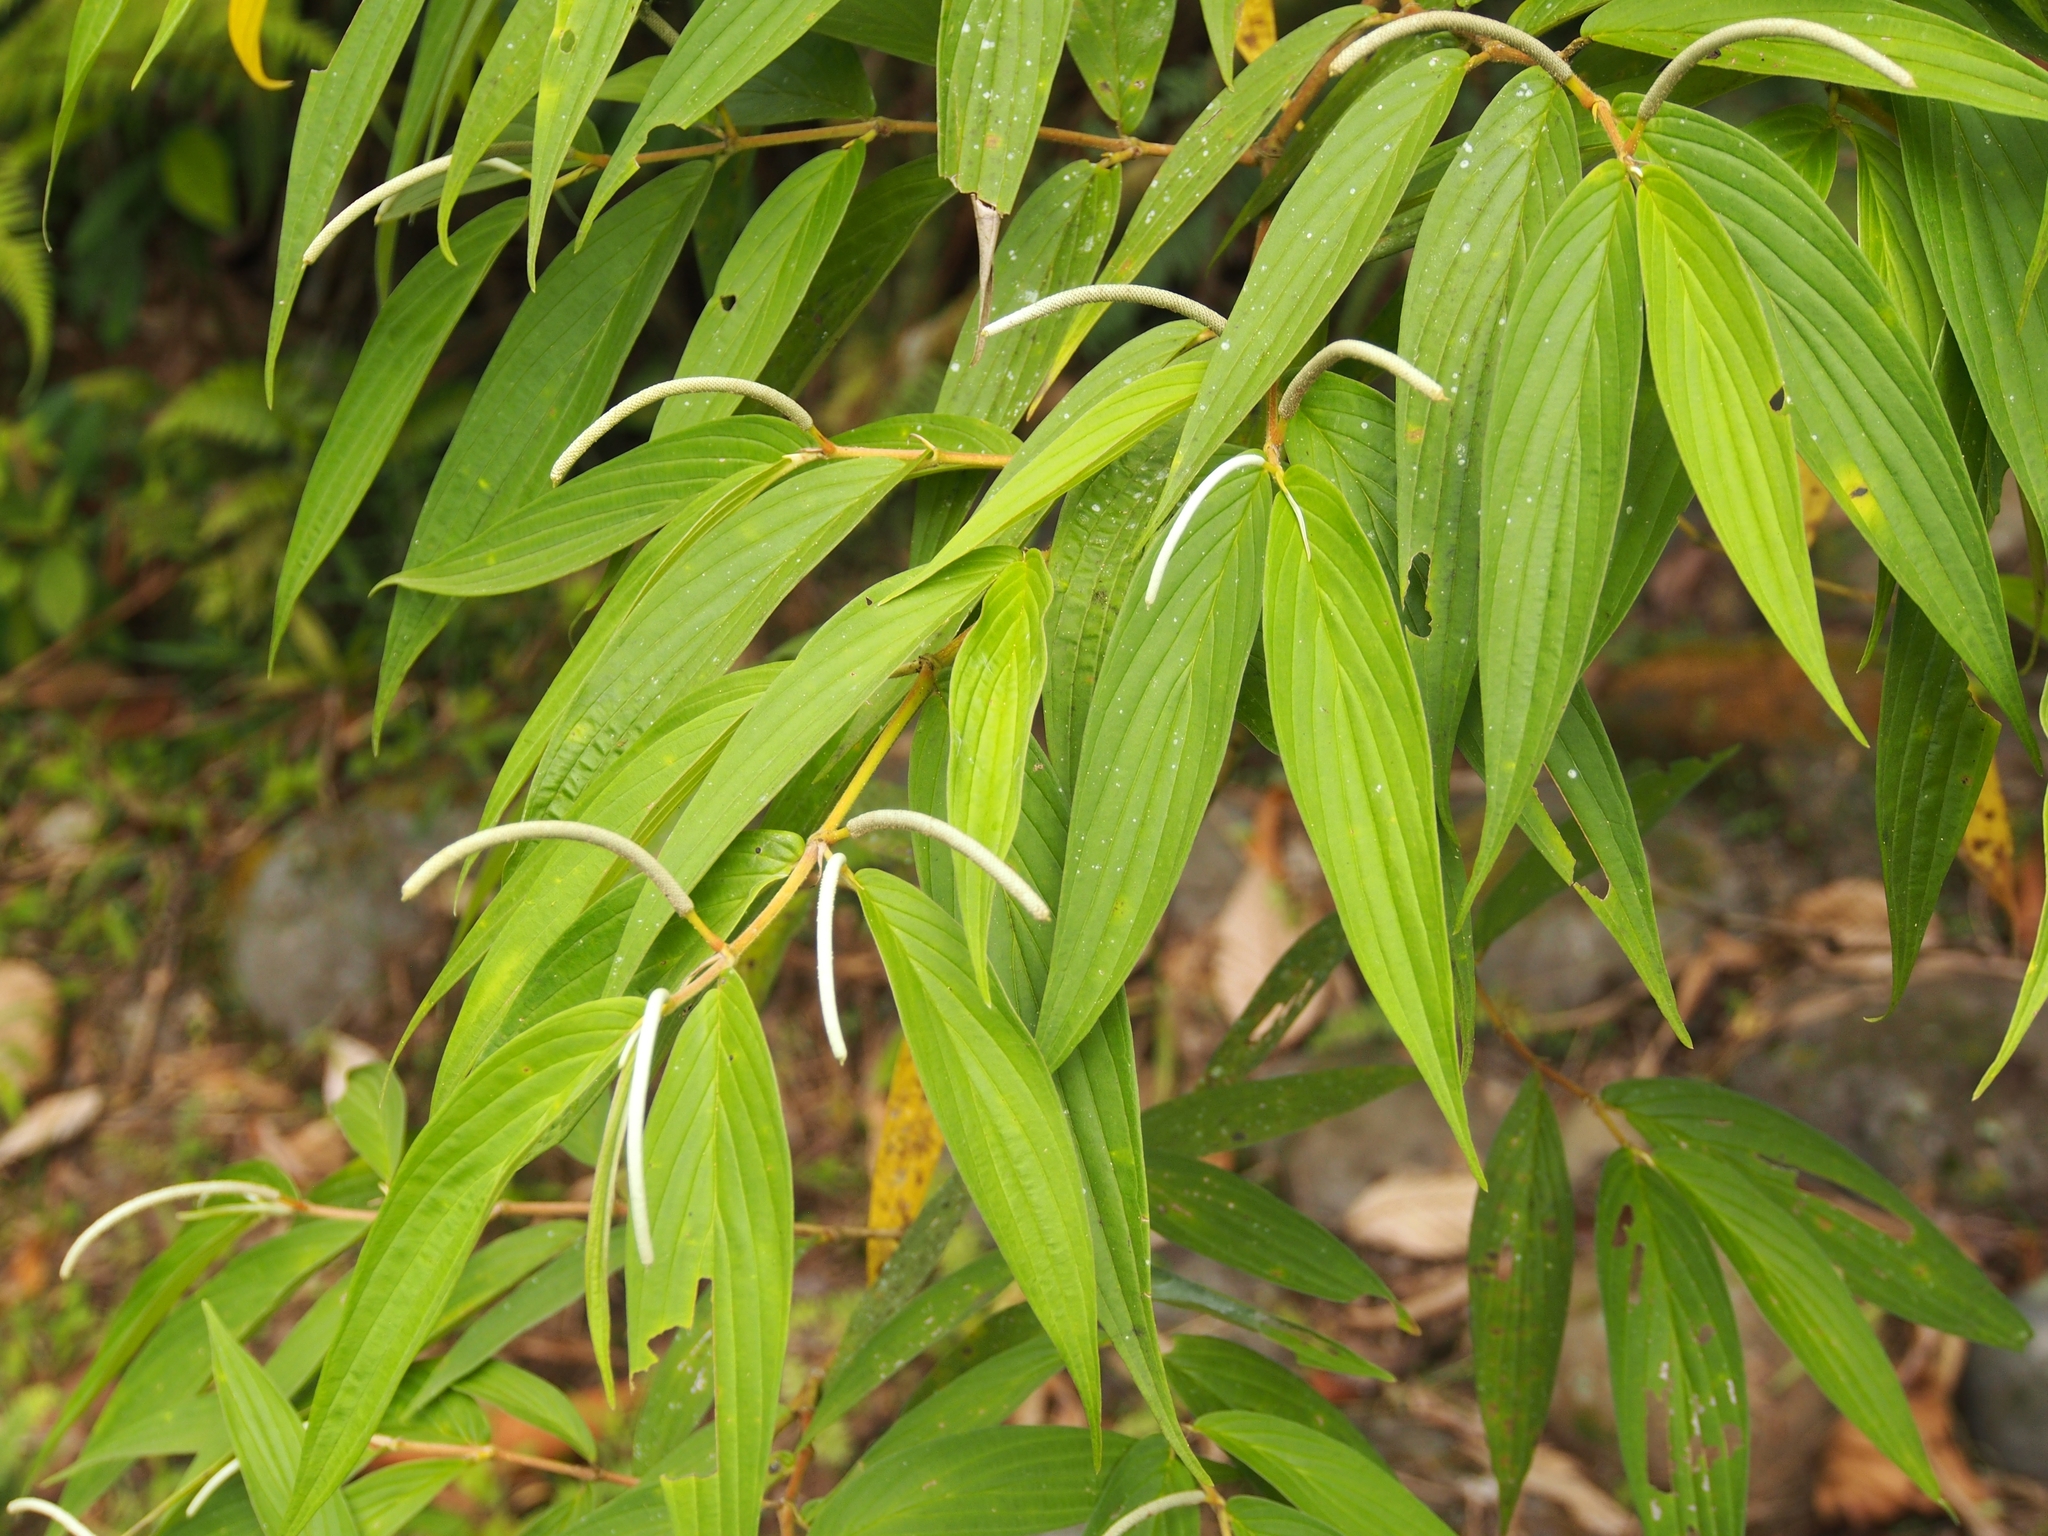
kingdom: Plantae
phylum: Tracheophyta
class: Magnoliopsida
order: Piperales
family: Piperaceae
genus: Piper
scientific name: Piper friedrichsthalii
